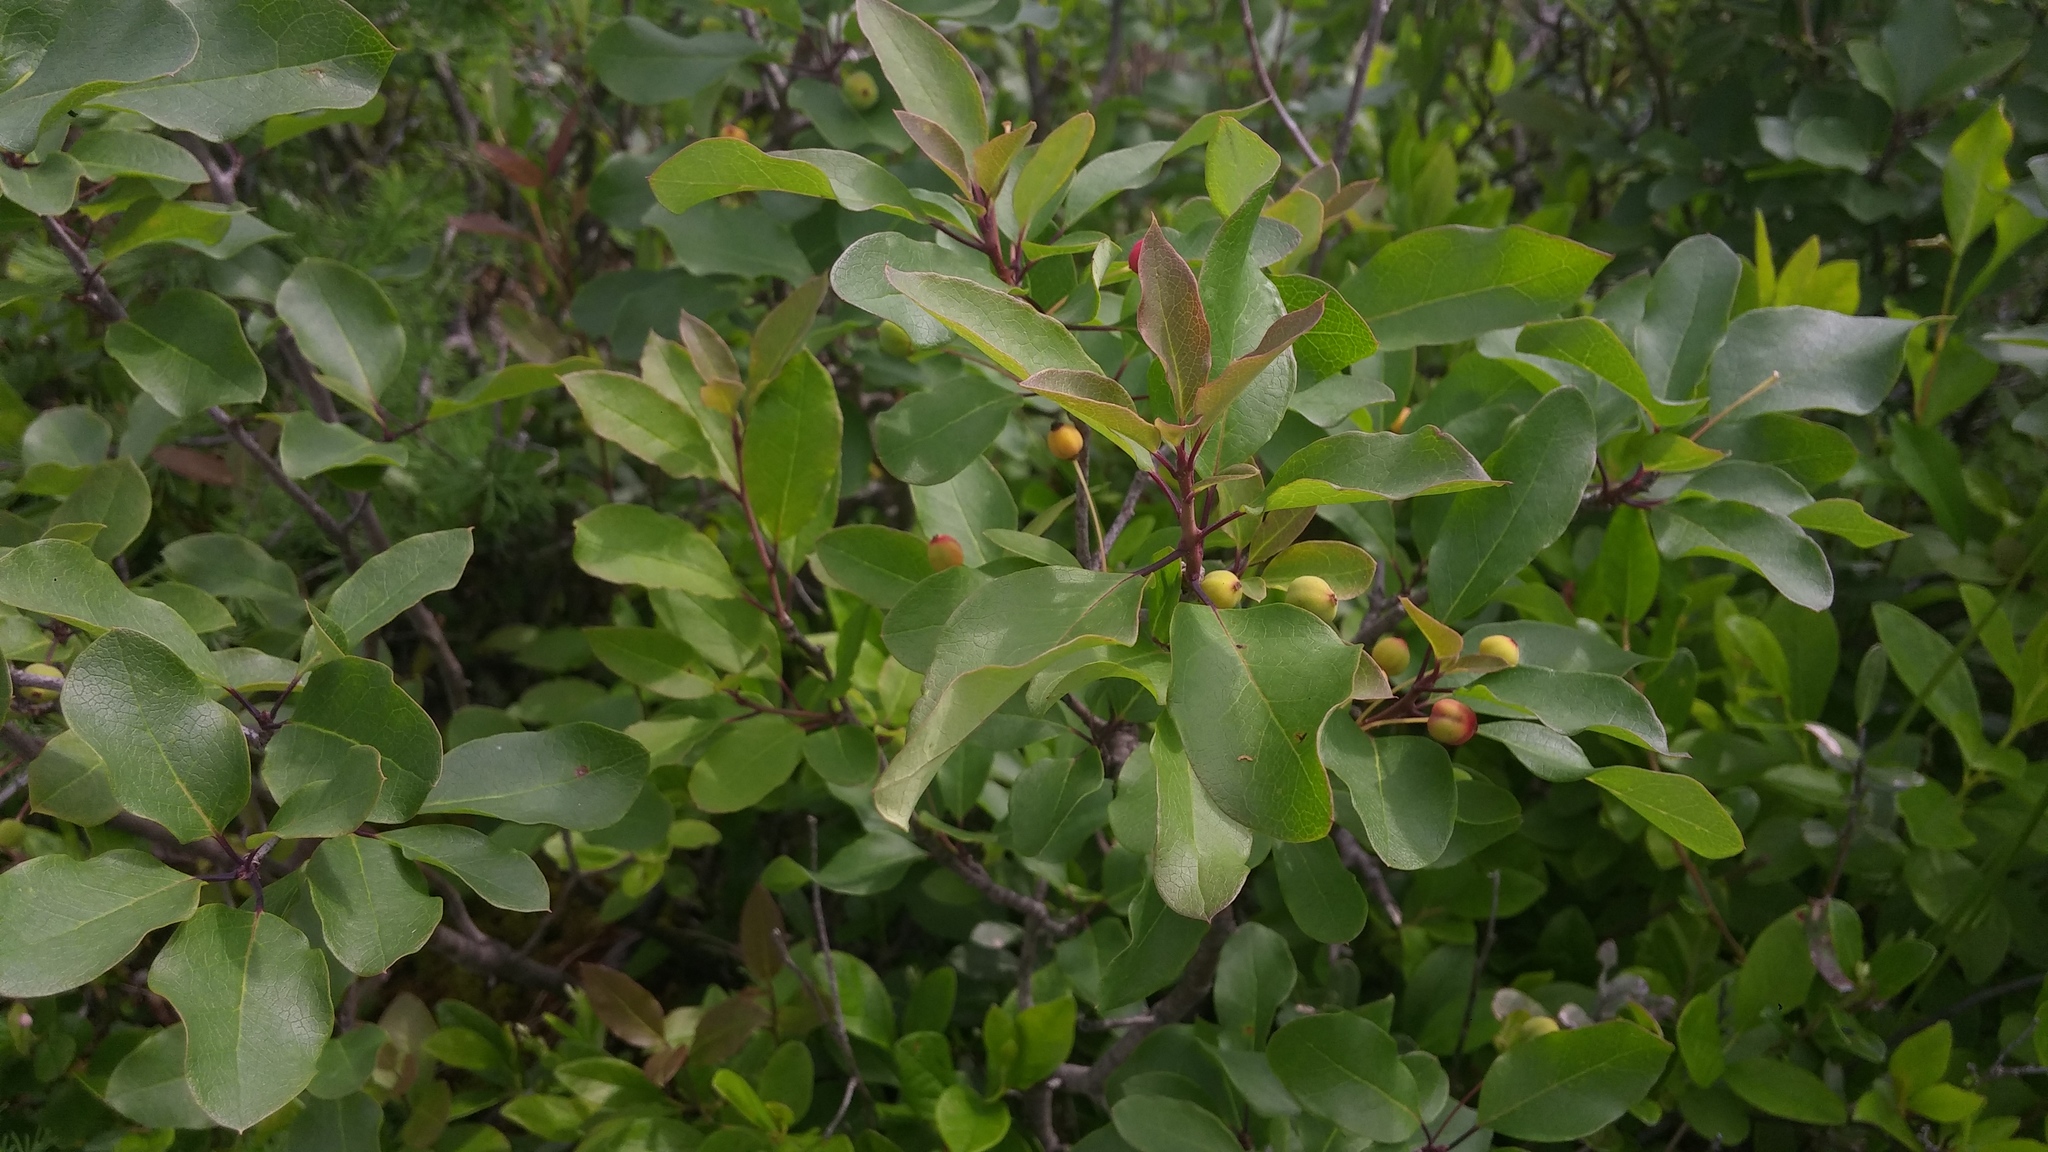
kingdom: Plantae
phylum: Tracheophyta
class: Magnoliopsida
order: Aquifoliales
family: Aquifoliaceae
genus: Ilex
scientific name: Ilex mucronata
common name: Catberry
